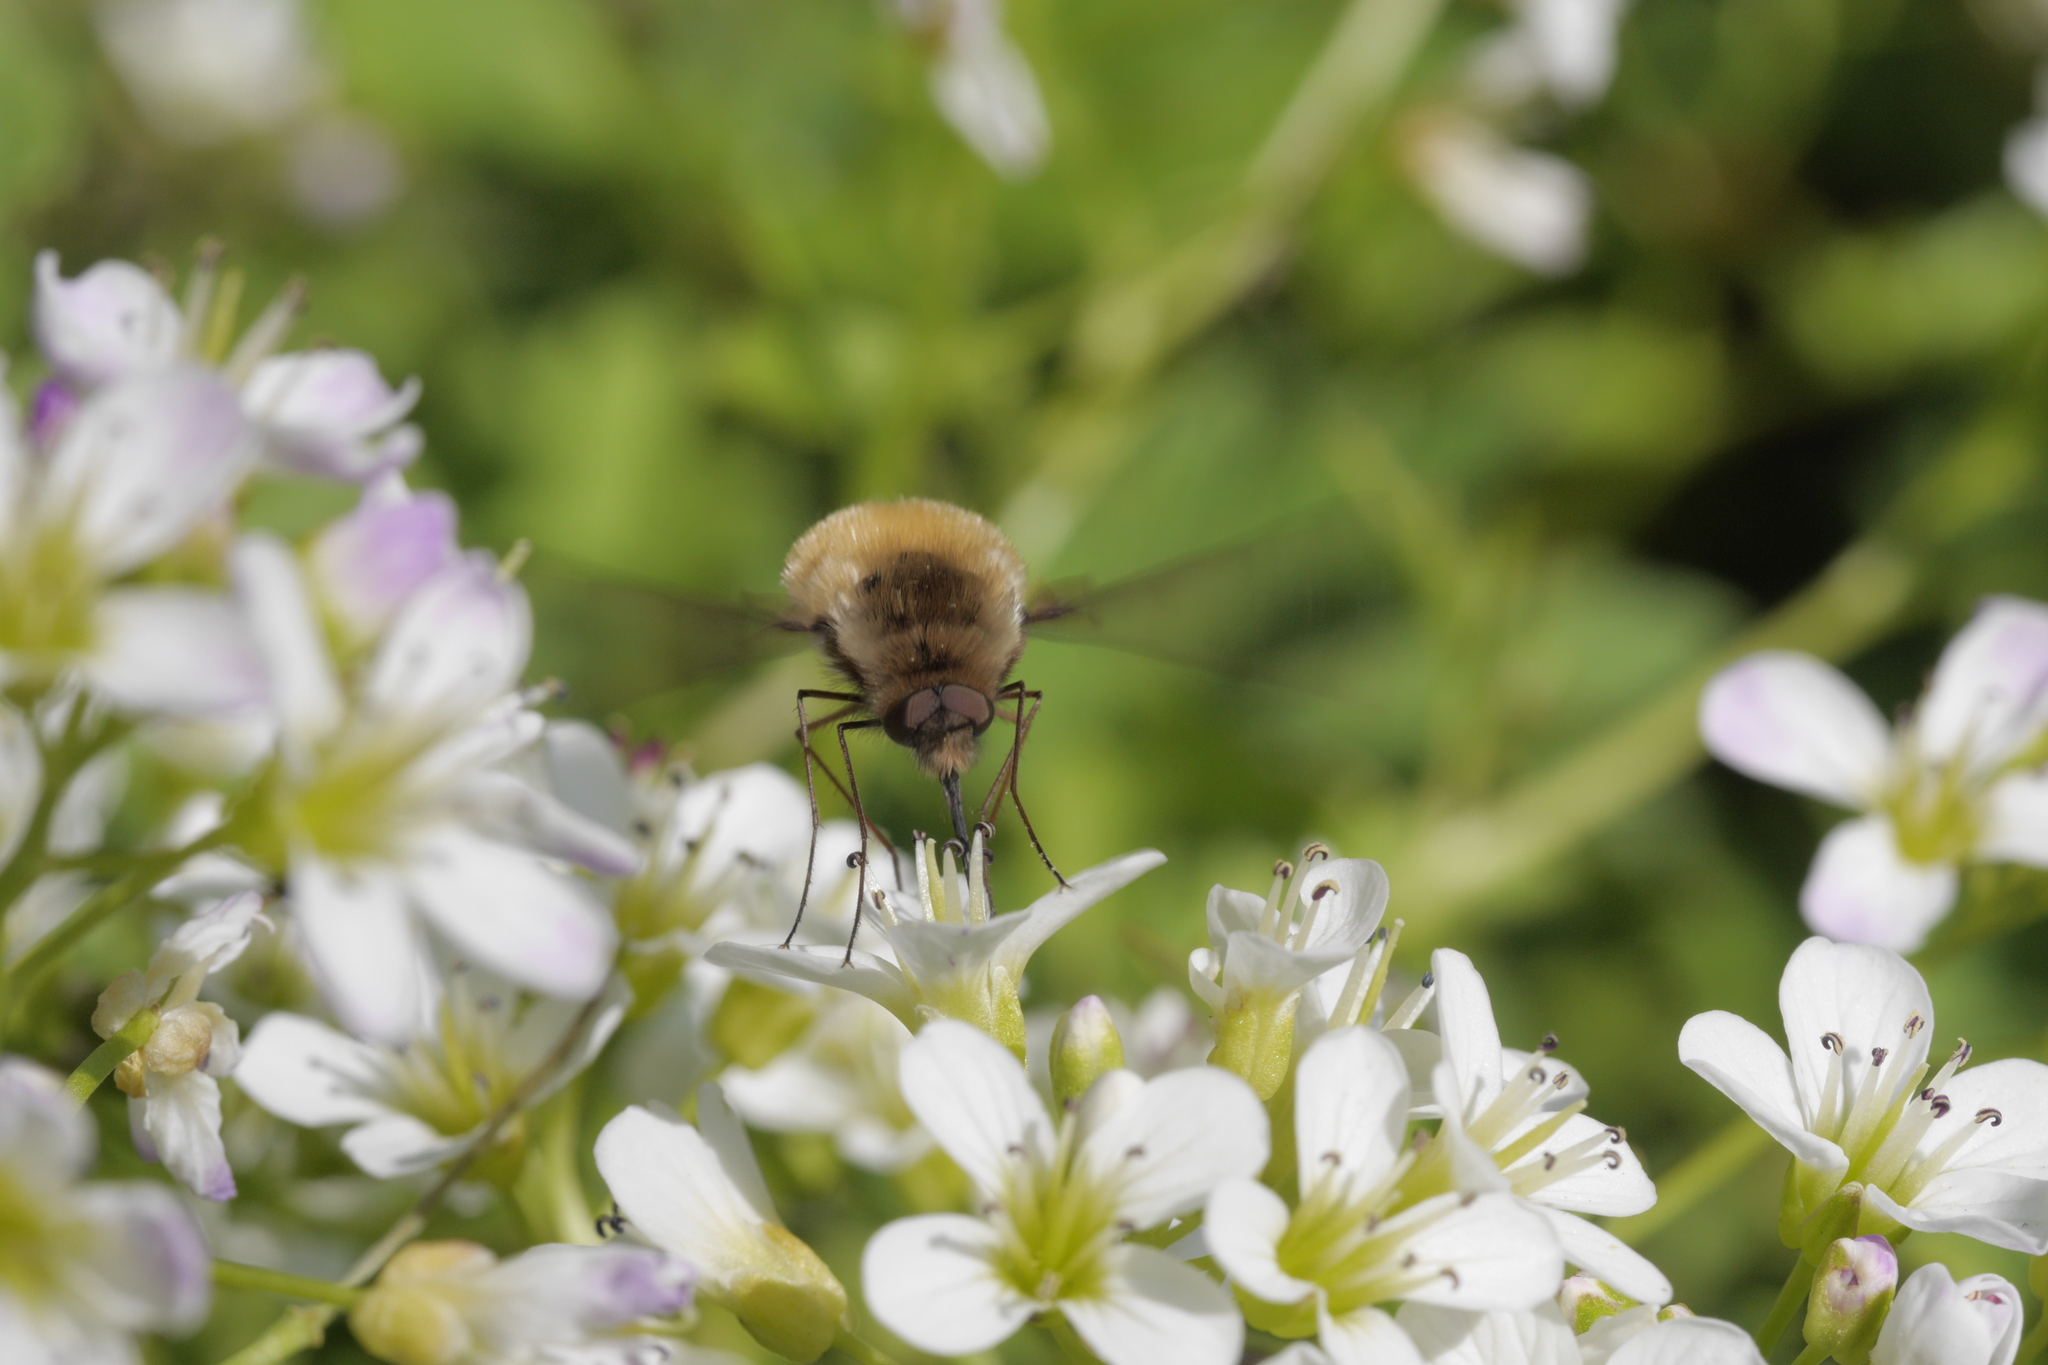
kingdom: Animalia
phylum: Arthropoda
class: Insecta
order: Diptera
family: Bombyliidae
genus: Bombylius
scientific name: Bombylius major
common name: Bee fly
